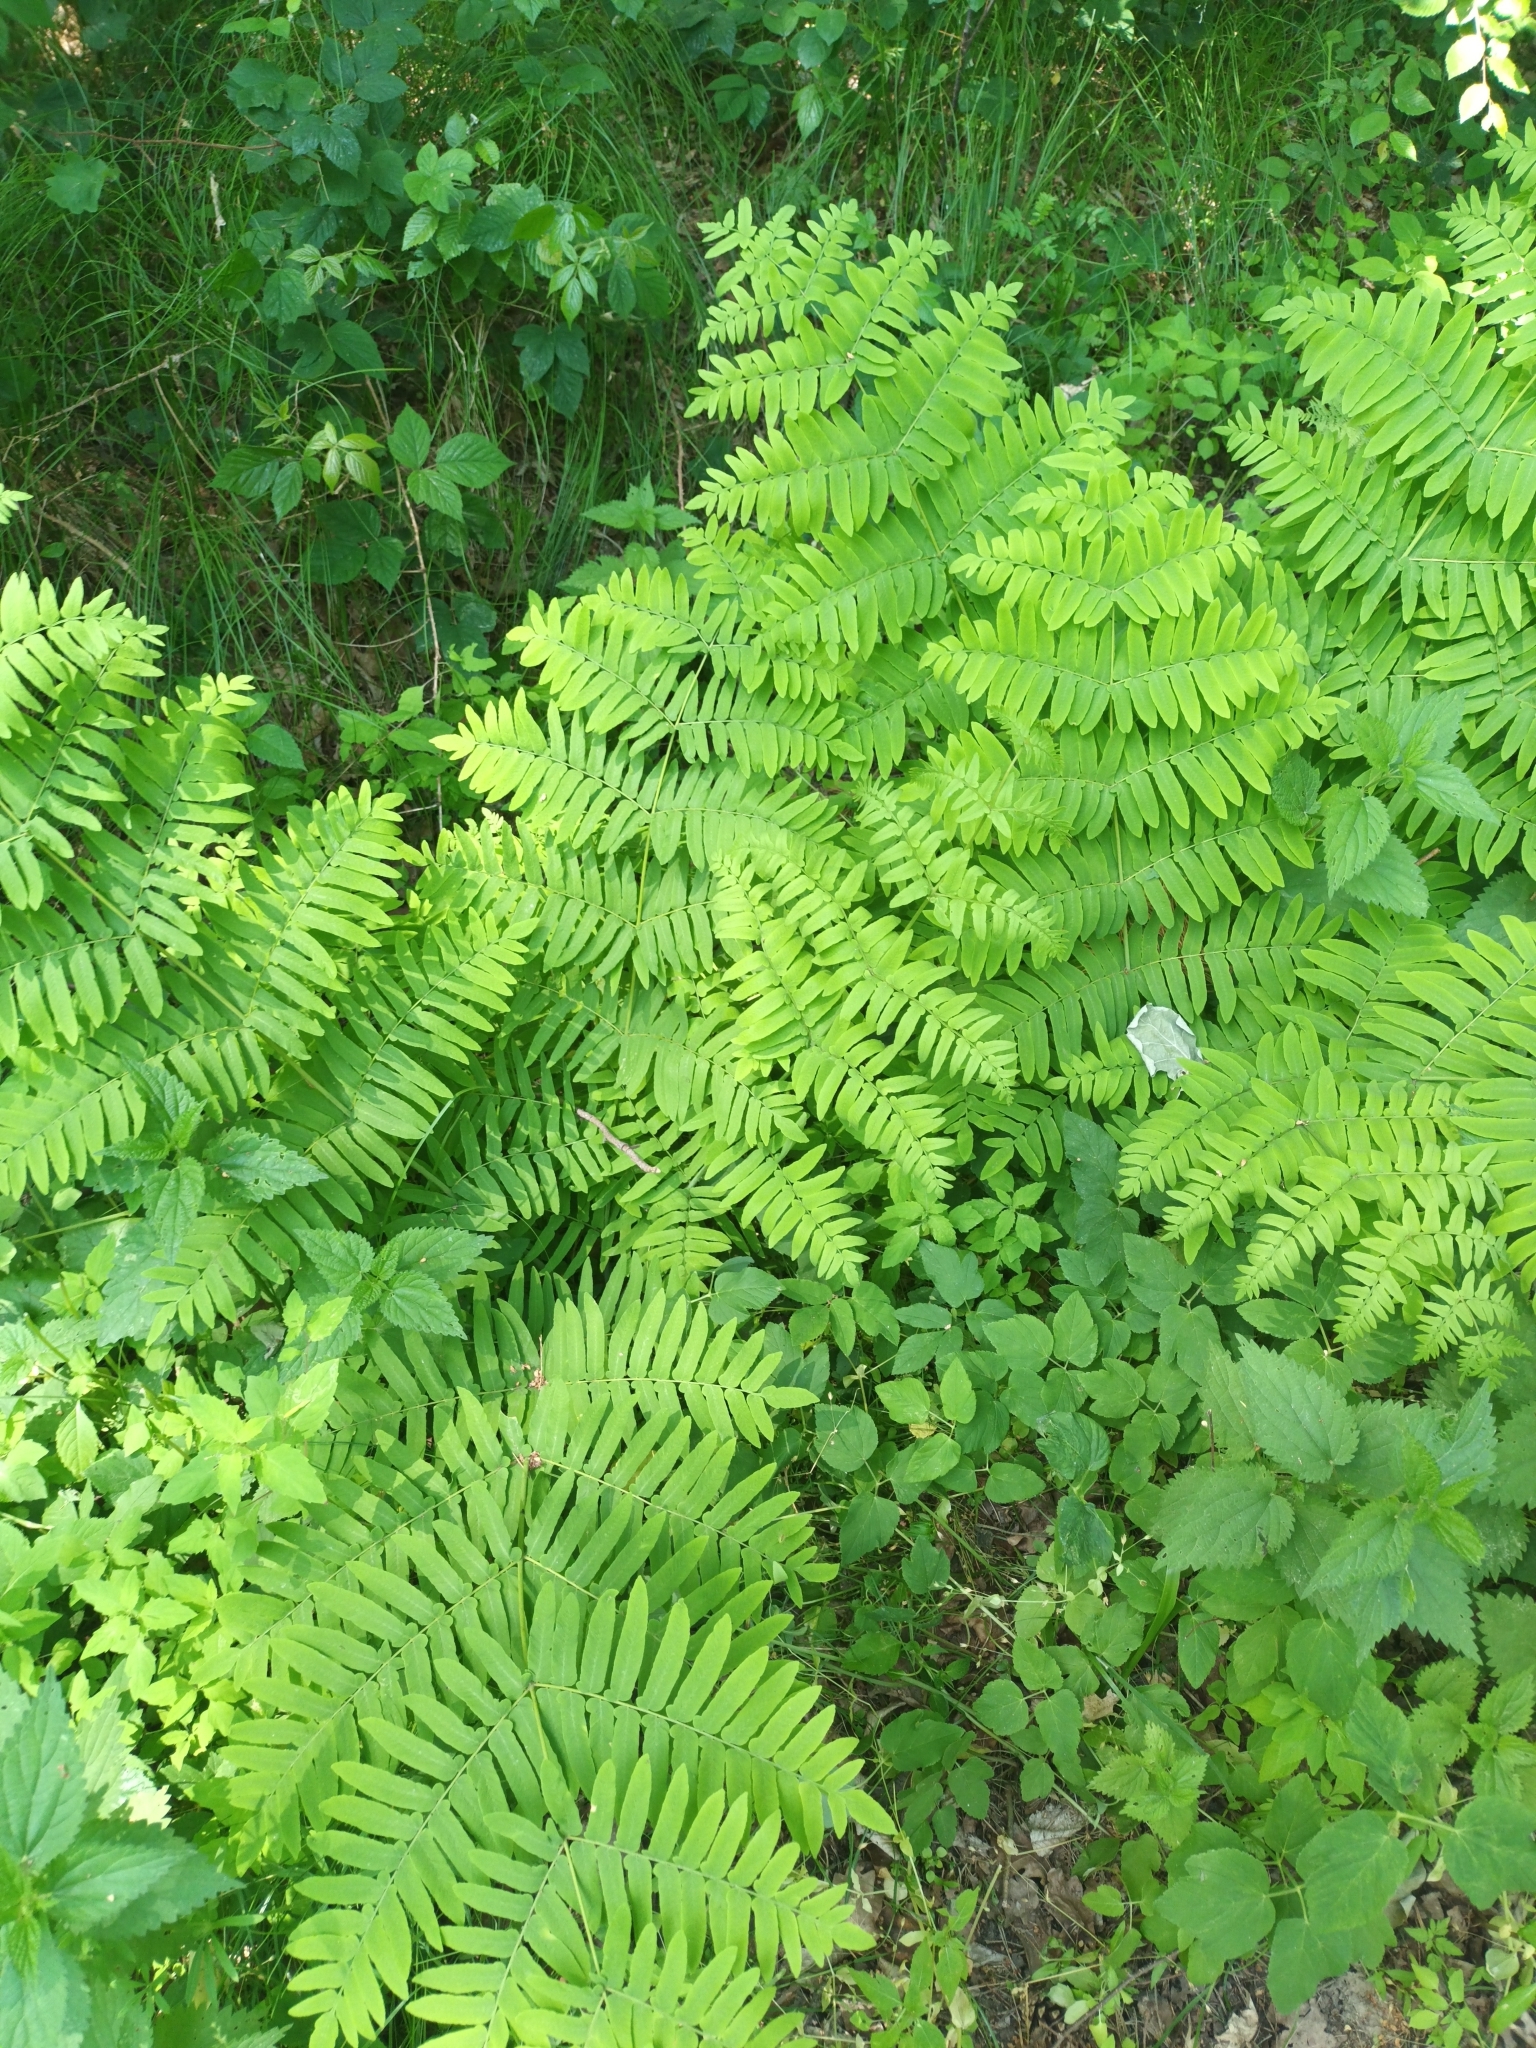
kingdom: Plantae
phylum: Tracheophyta
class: Polypodiopsida
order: Osmundales
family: Osmundaceae
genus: Osmunda
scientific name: Osmunda regalis
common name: Royal fern
